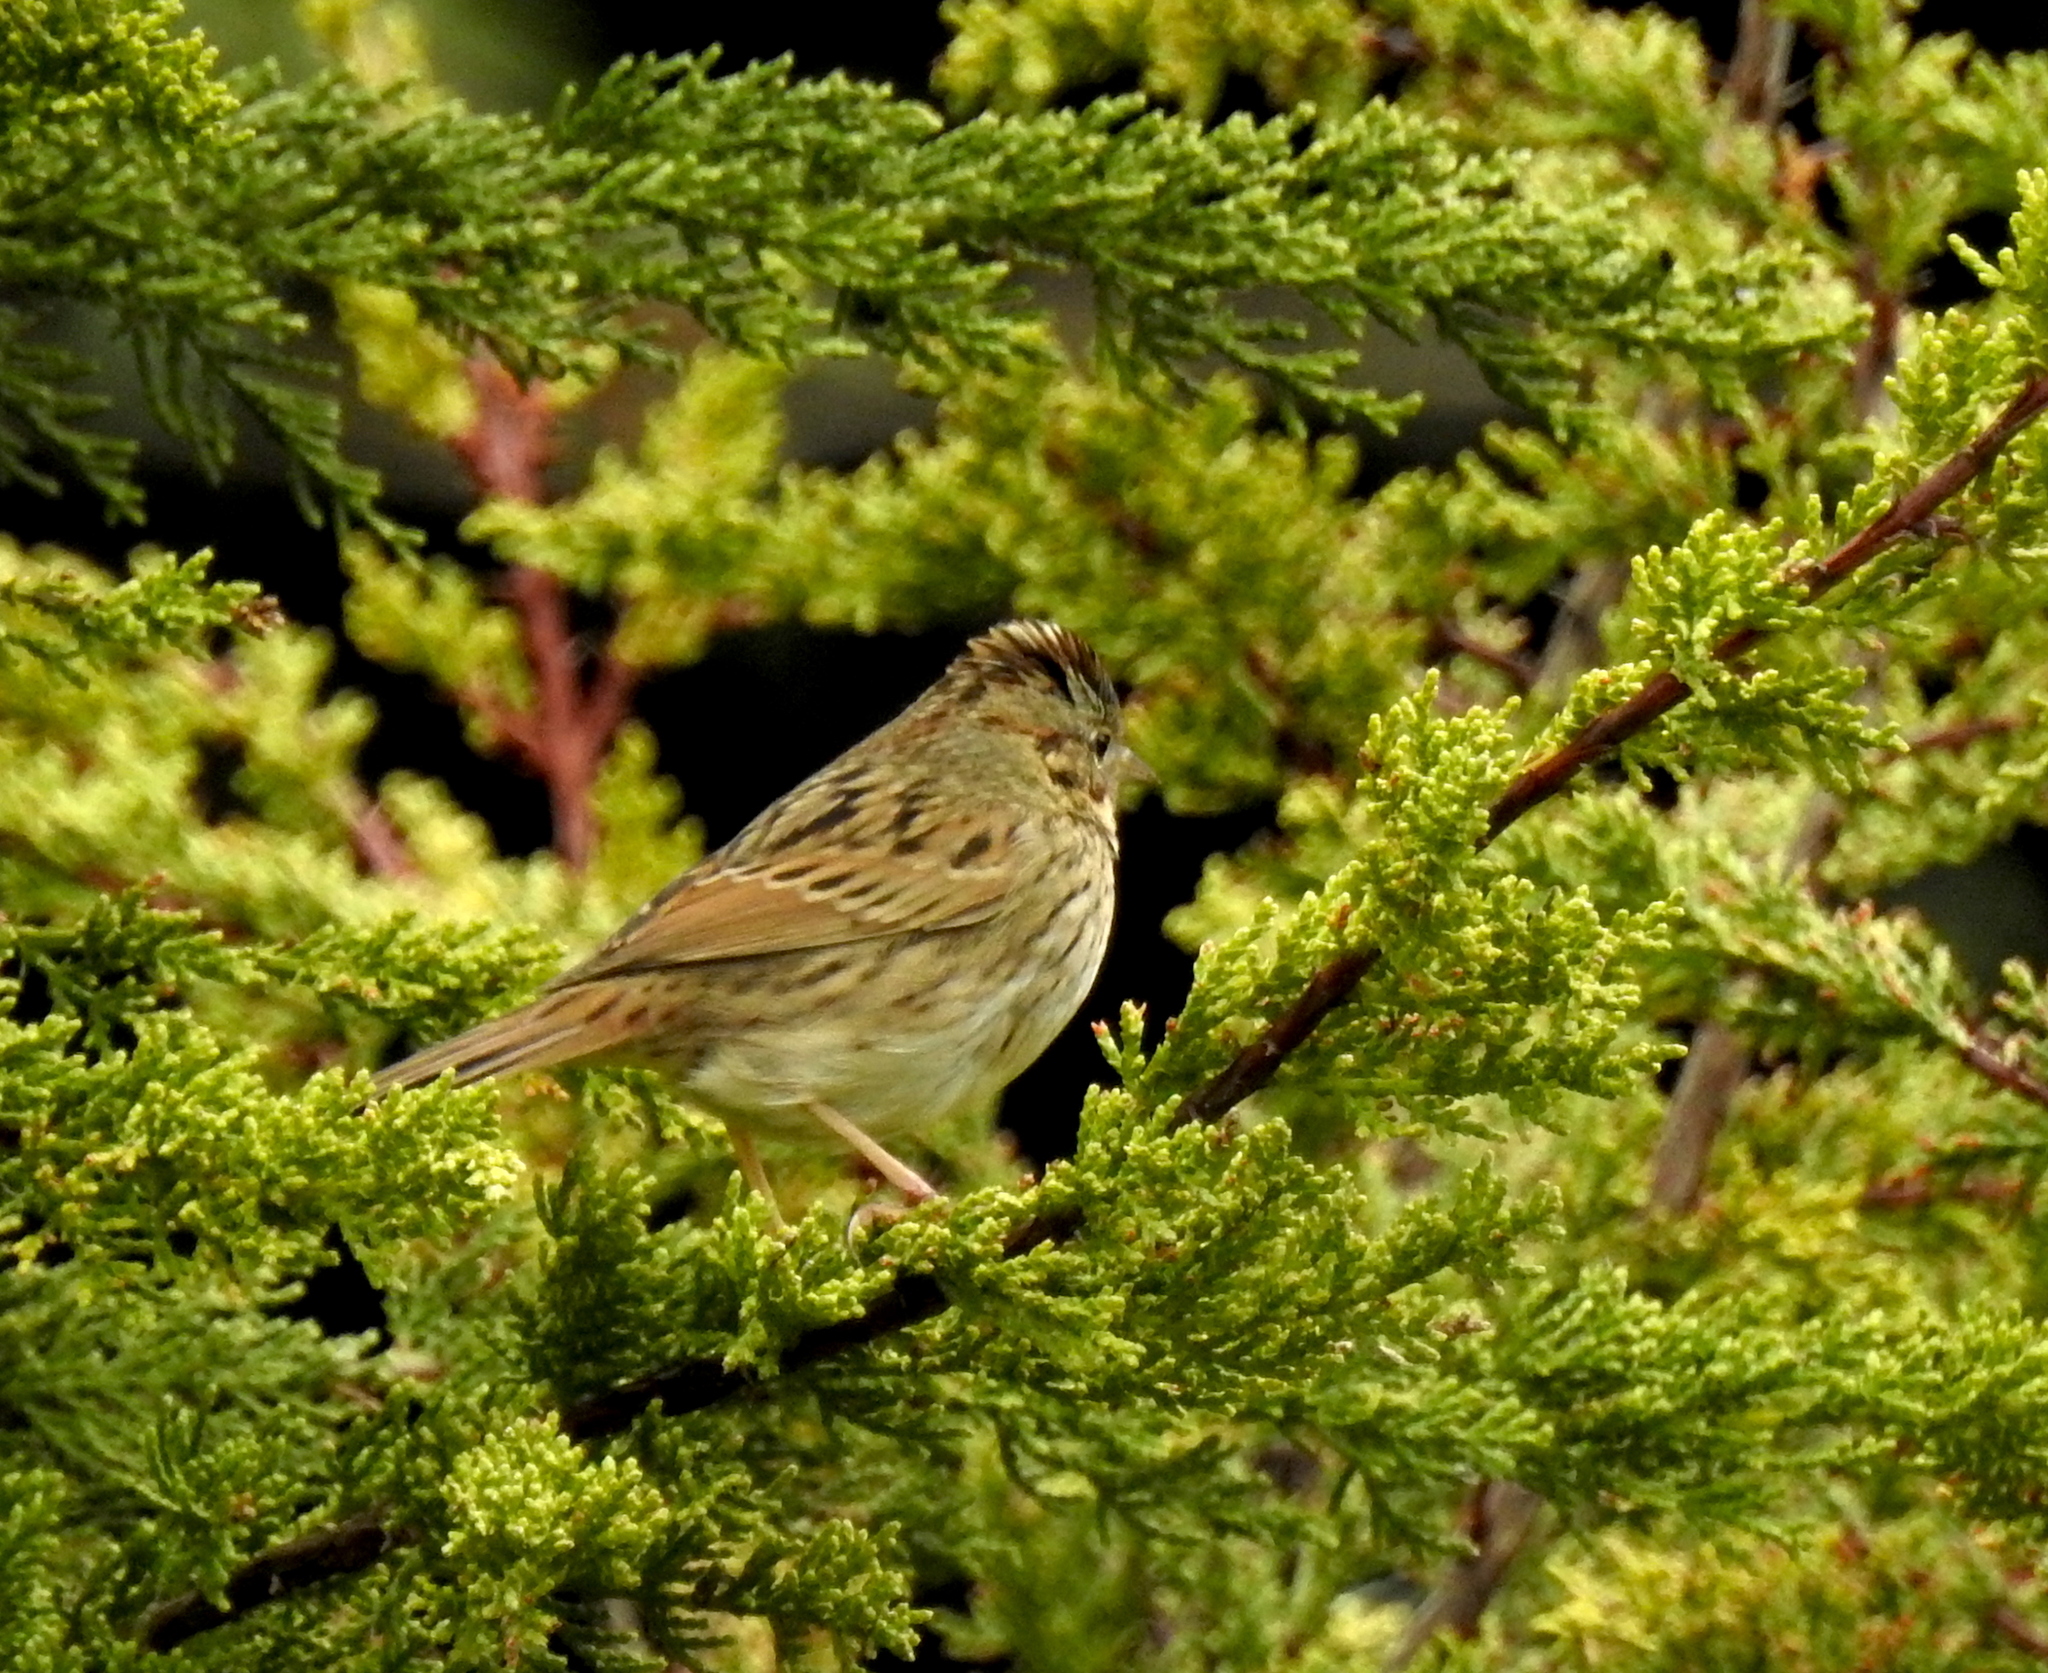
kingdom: Animalia
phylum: Chordata
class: Aves
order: Passeriformes
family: Passerellidae
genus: Melospiza
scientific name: Melospiza lincolnii
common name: Lincoln's sparrow
